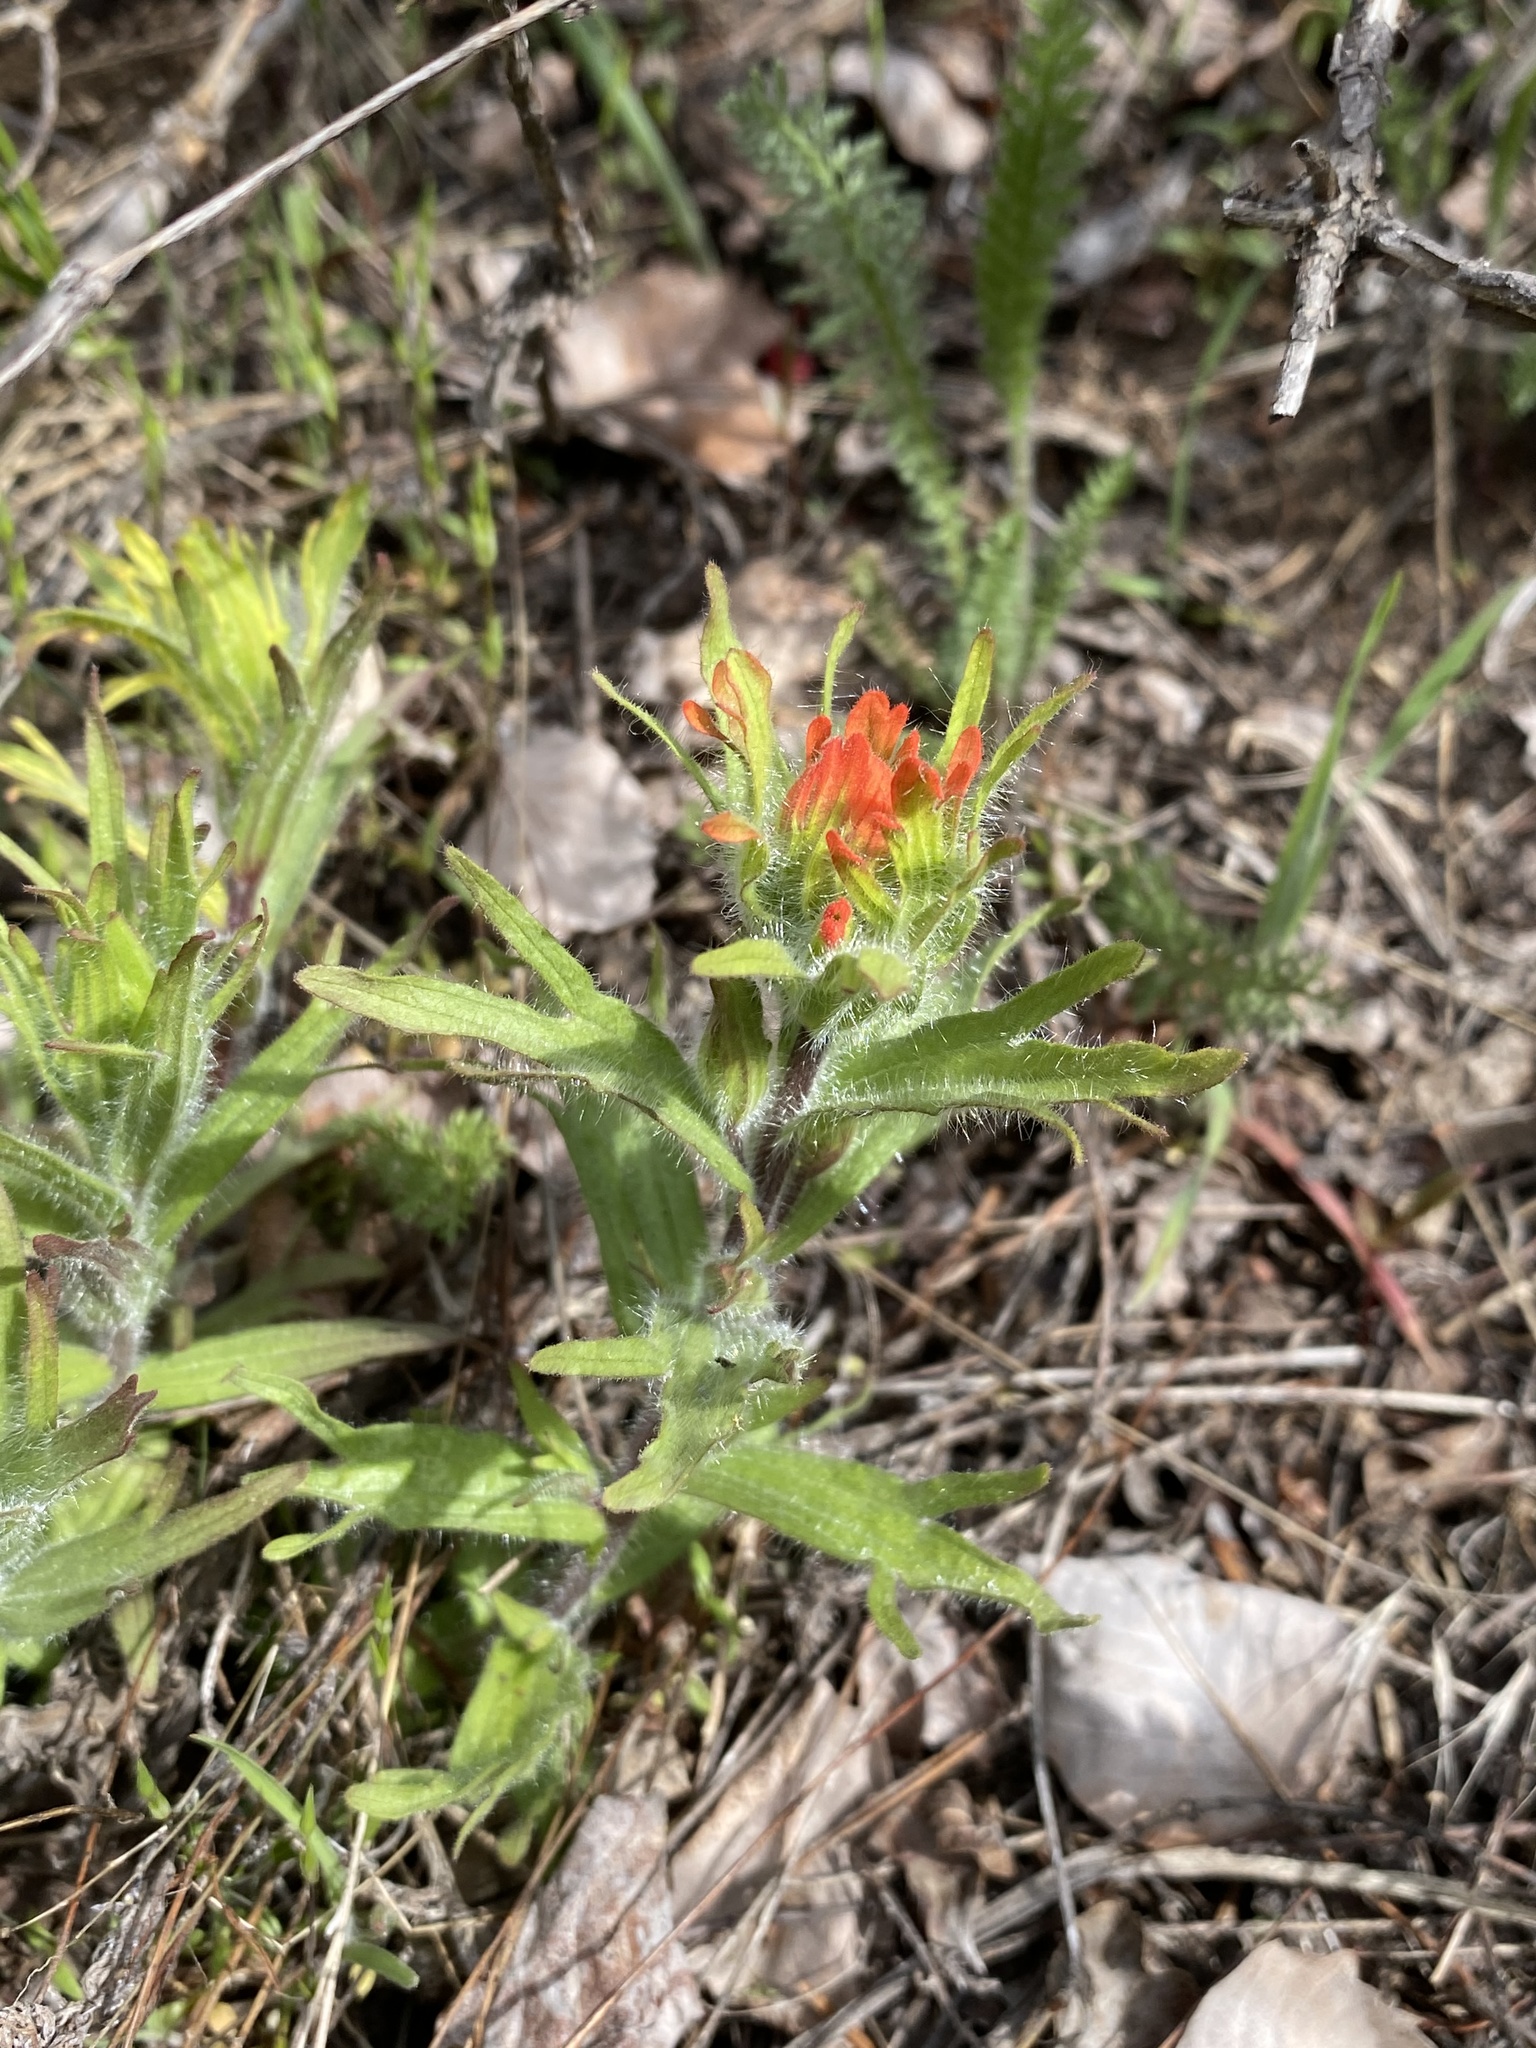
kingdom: Plantae
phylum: Tracheophyta
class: Magnoliopsida
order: Lamiales
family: Orobanchaceae
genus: Castilleja
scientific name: Castilleja hispida
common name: Bristly paintbrush
